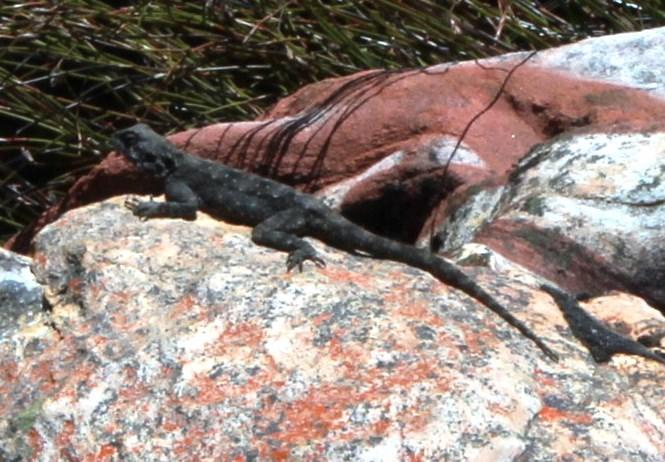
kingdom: Animalia
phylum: Chordata
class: Squamata
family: Agamidae
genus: Agama
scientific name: Agama atra
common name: Southern african rock agama
